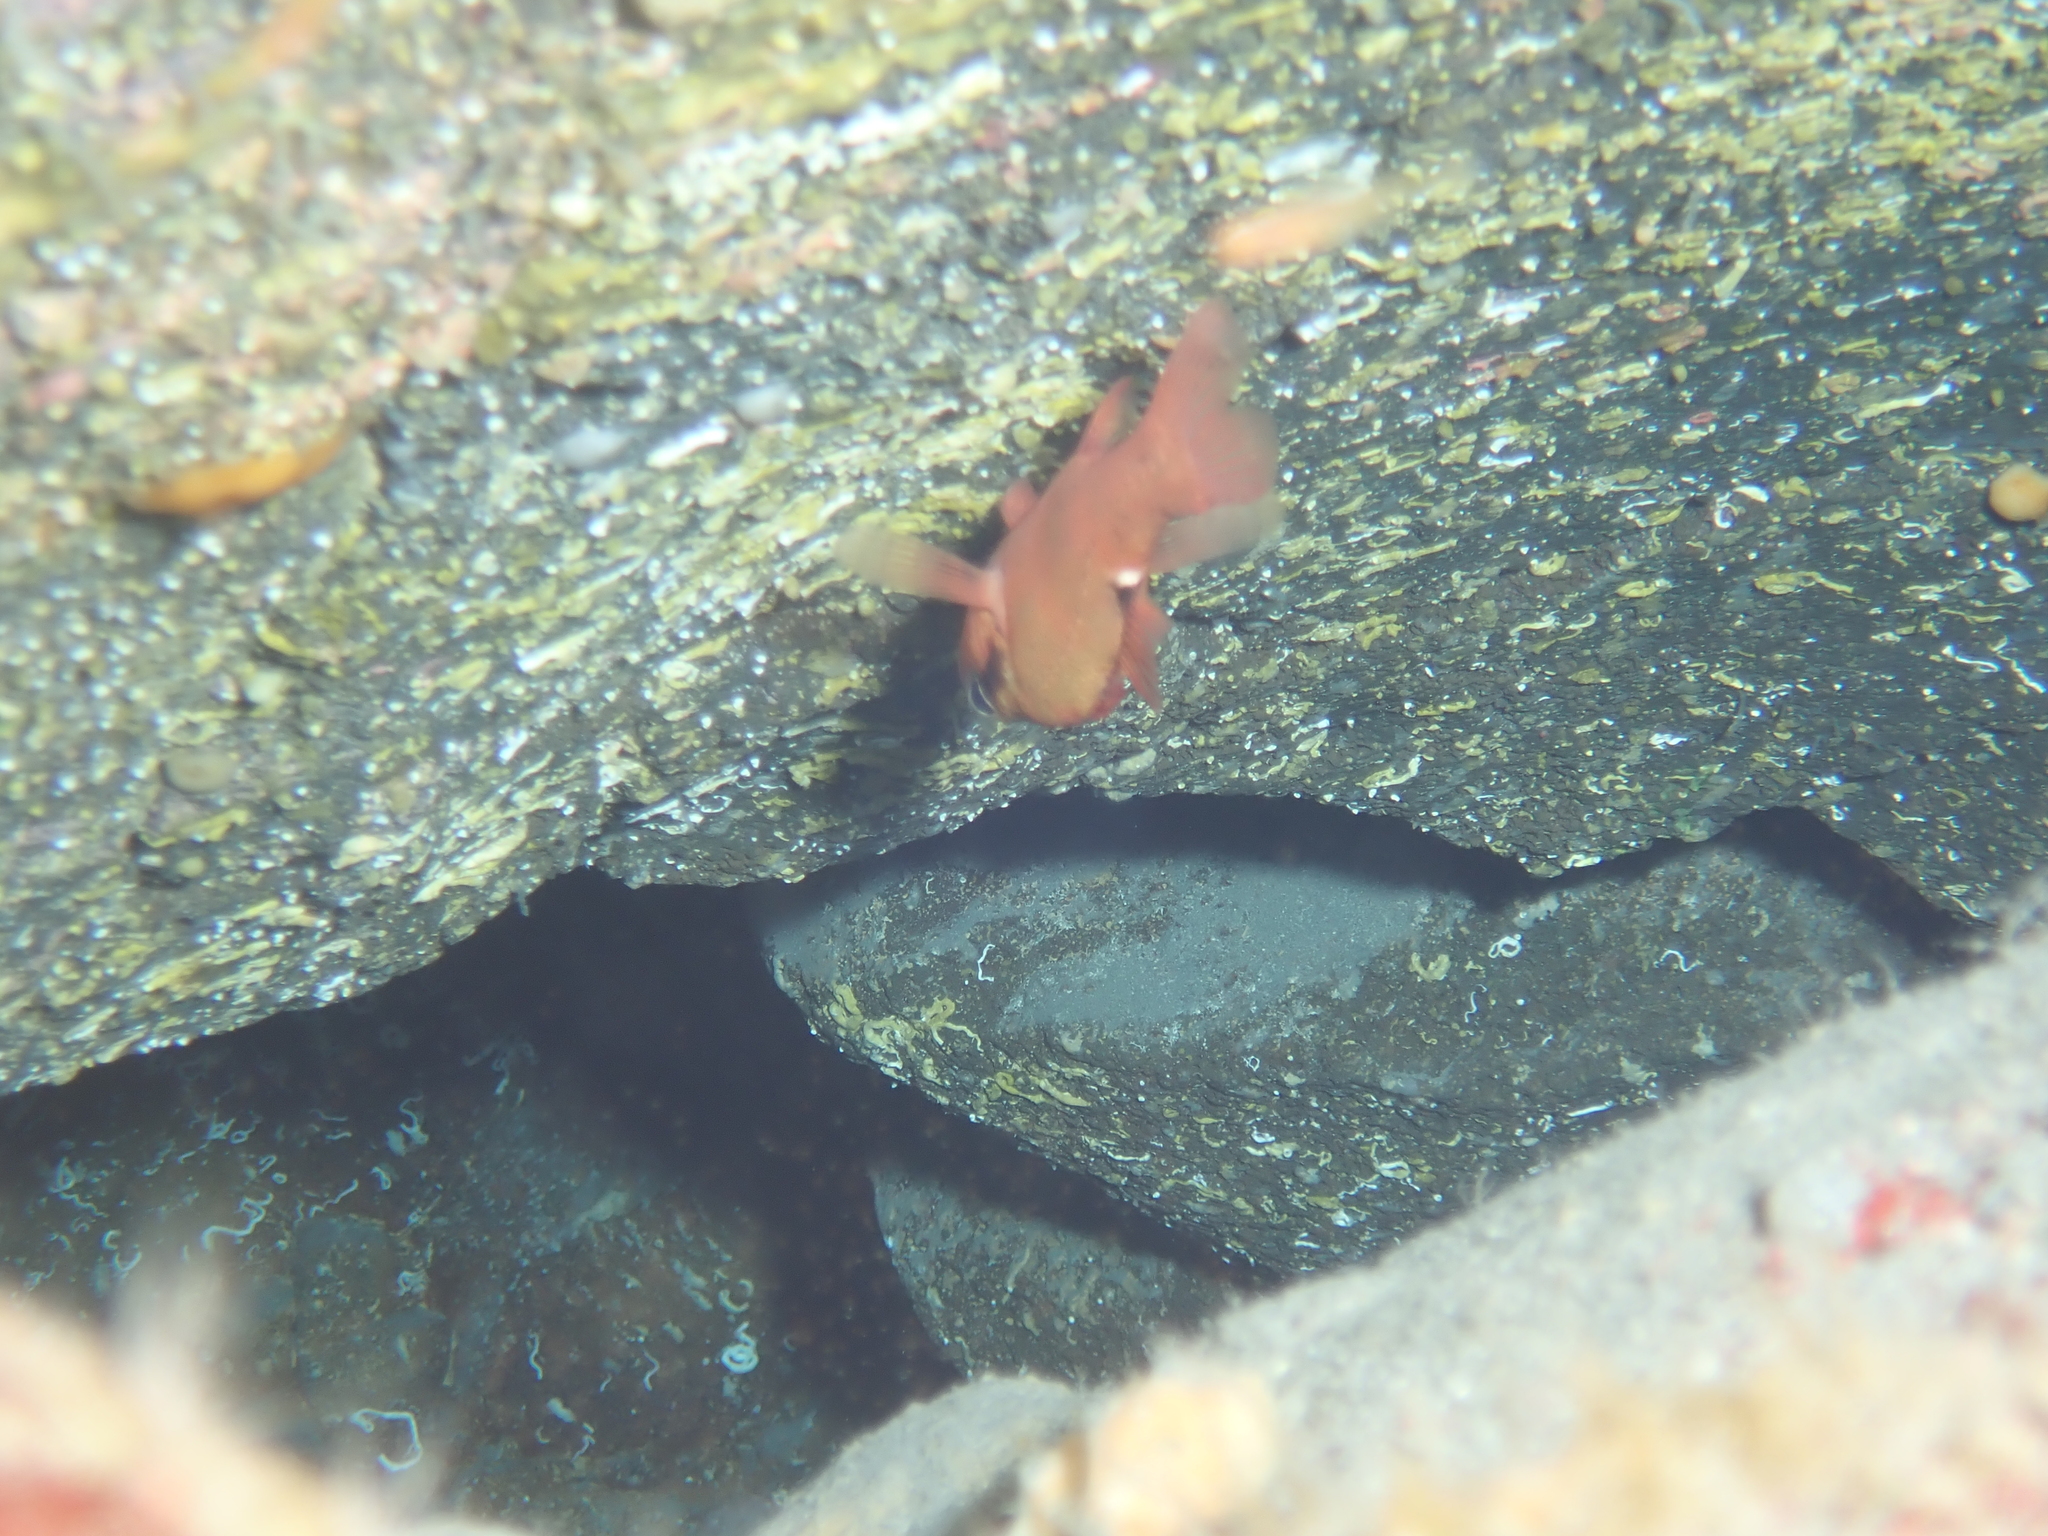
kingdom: Animalia
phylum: Chordata
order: Perciformes
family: Apogonidae
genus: Zapogon
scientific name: Zapogon evermanni
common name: Cave cardinalfish
